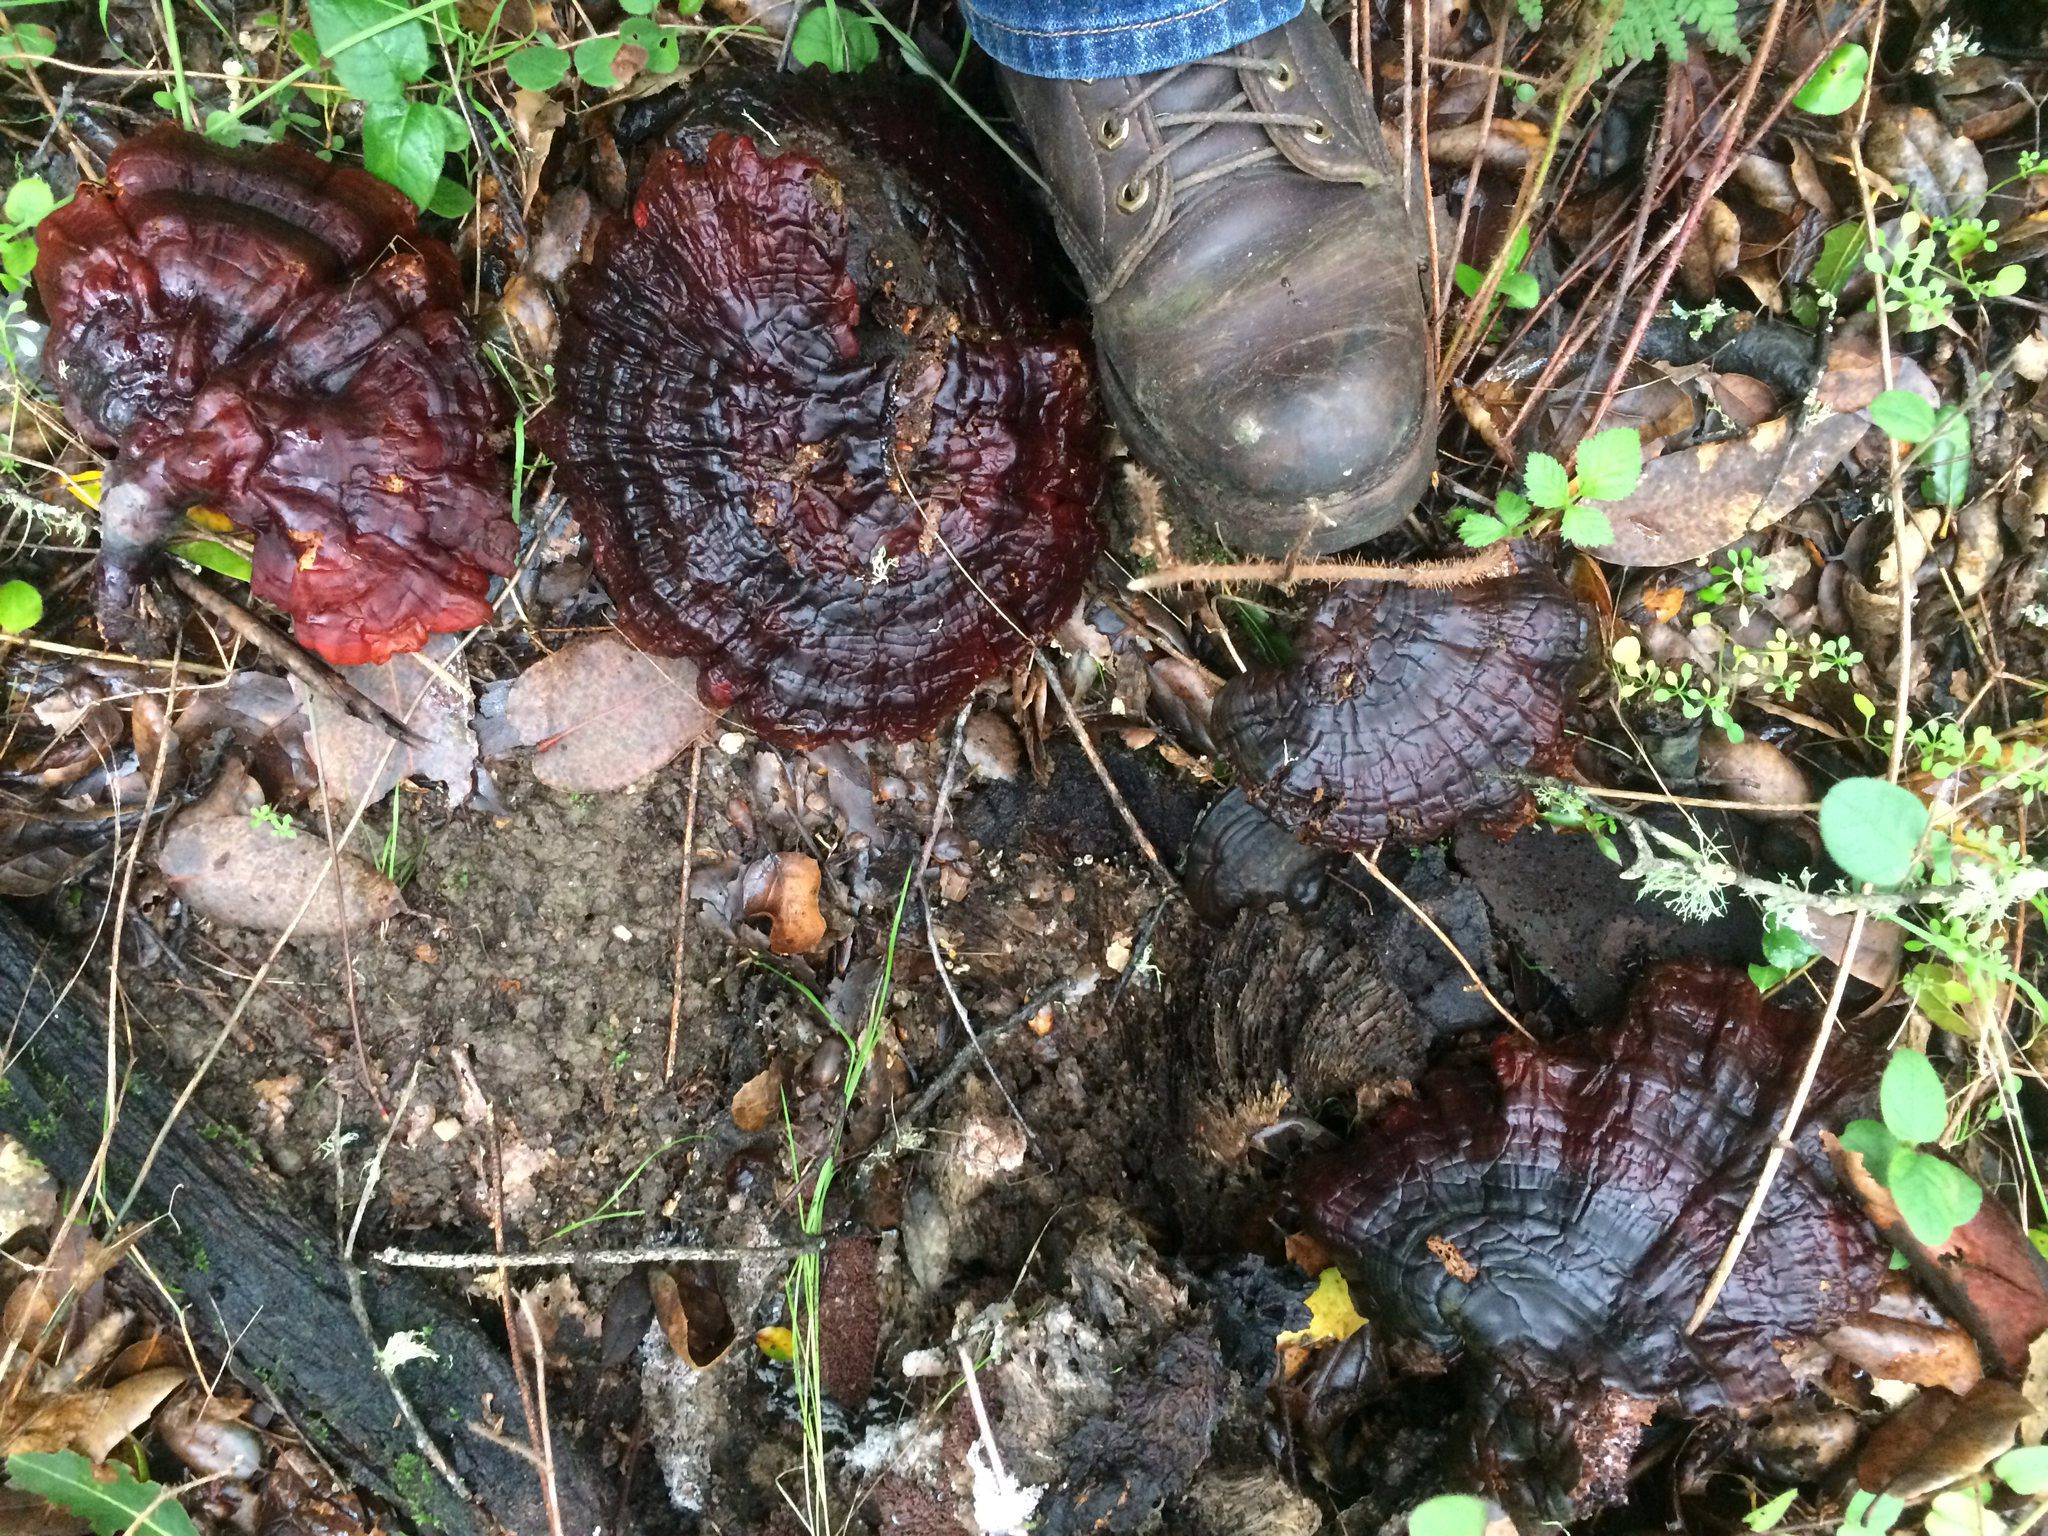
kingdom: Fungi
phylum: Basidiomycota
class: Agaricomycetes
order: Polyporales
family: Polyporaceae
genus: Ganoderma
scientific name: Ganoderma polychromum
